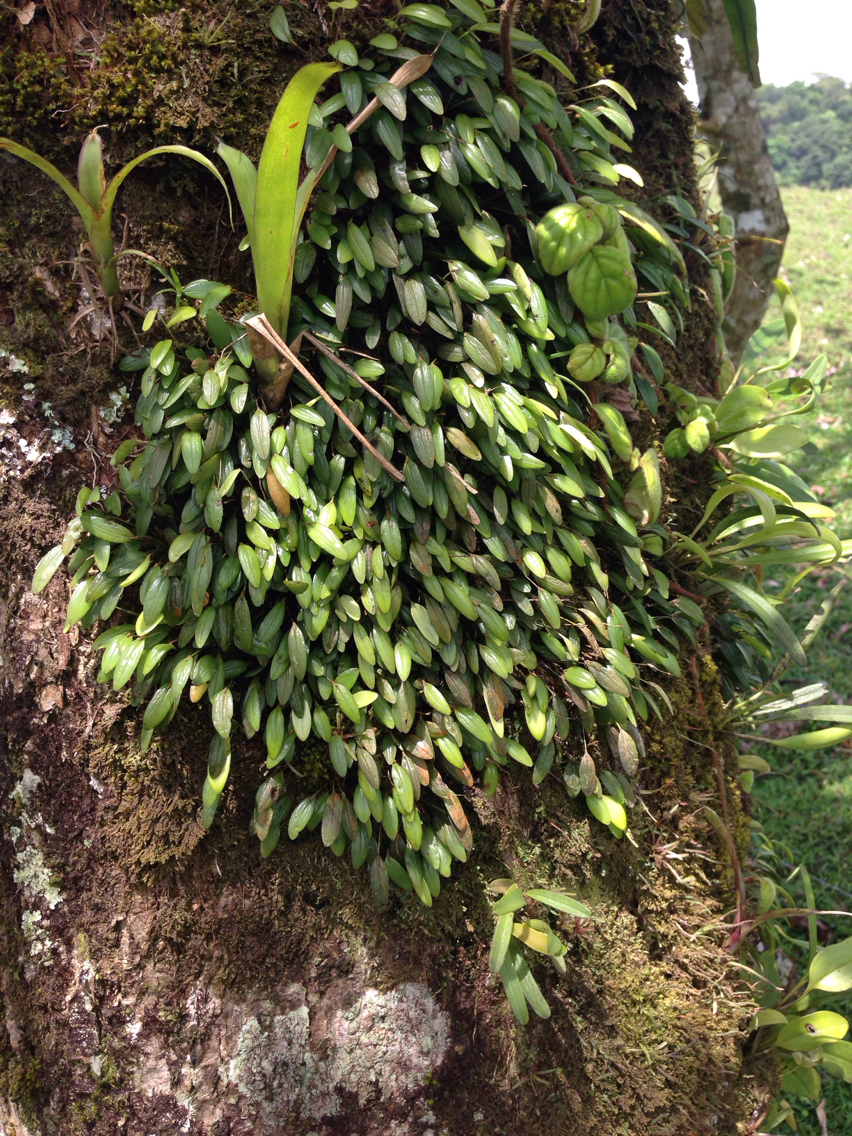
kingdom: Plantae
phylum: Tracheophyta
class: Liliopsida
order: Asparagales
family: Orchidaceae
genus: Pleurothallis
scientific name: Pleurothallis pruinosa
